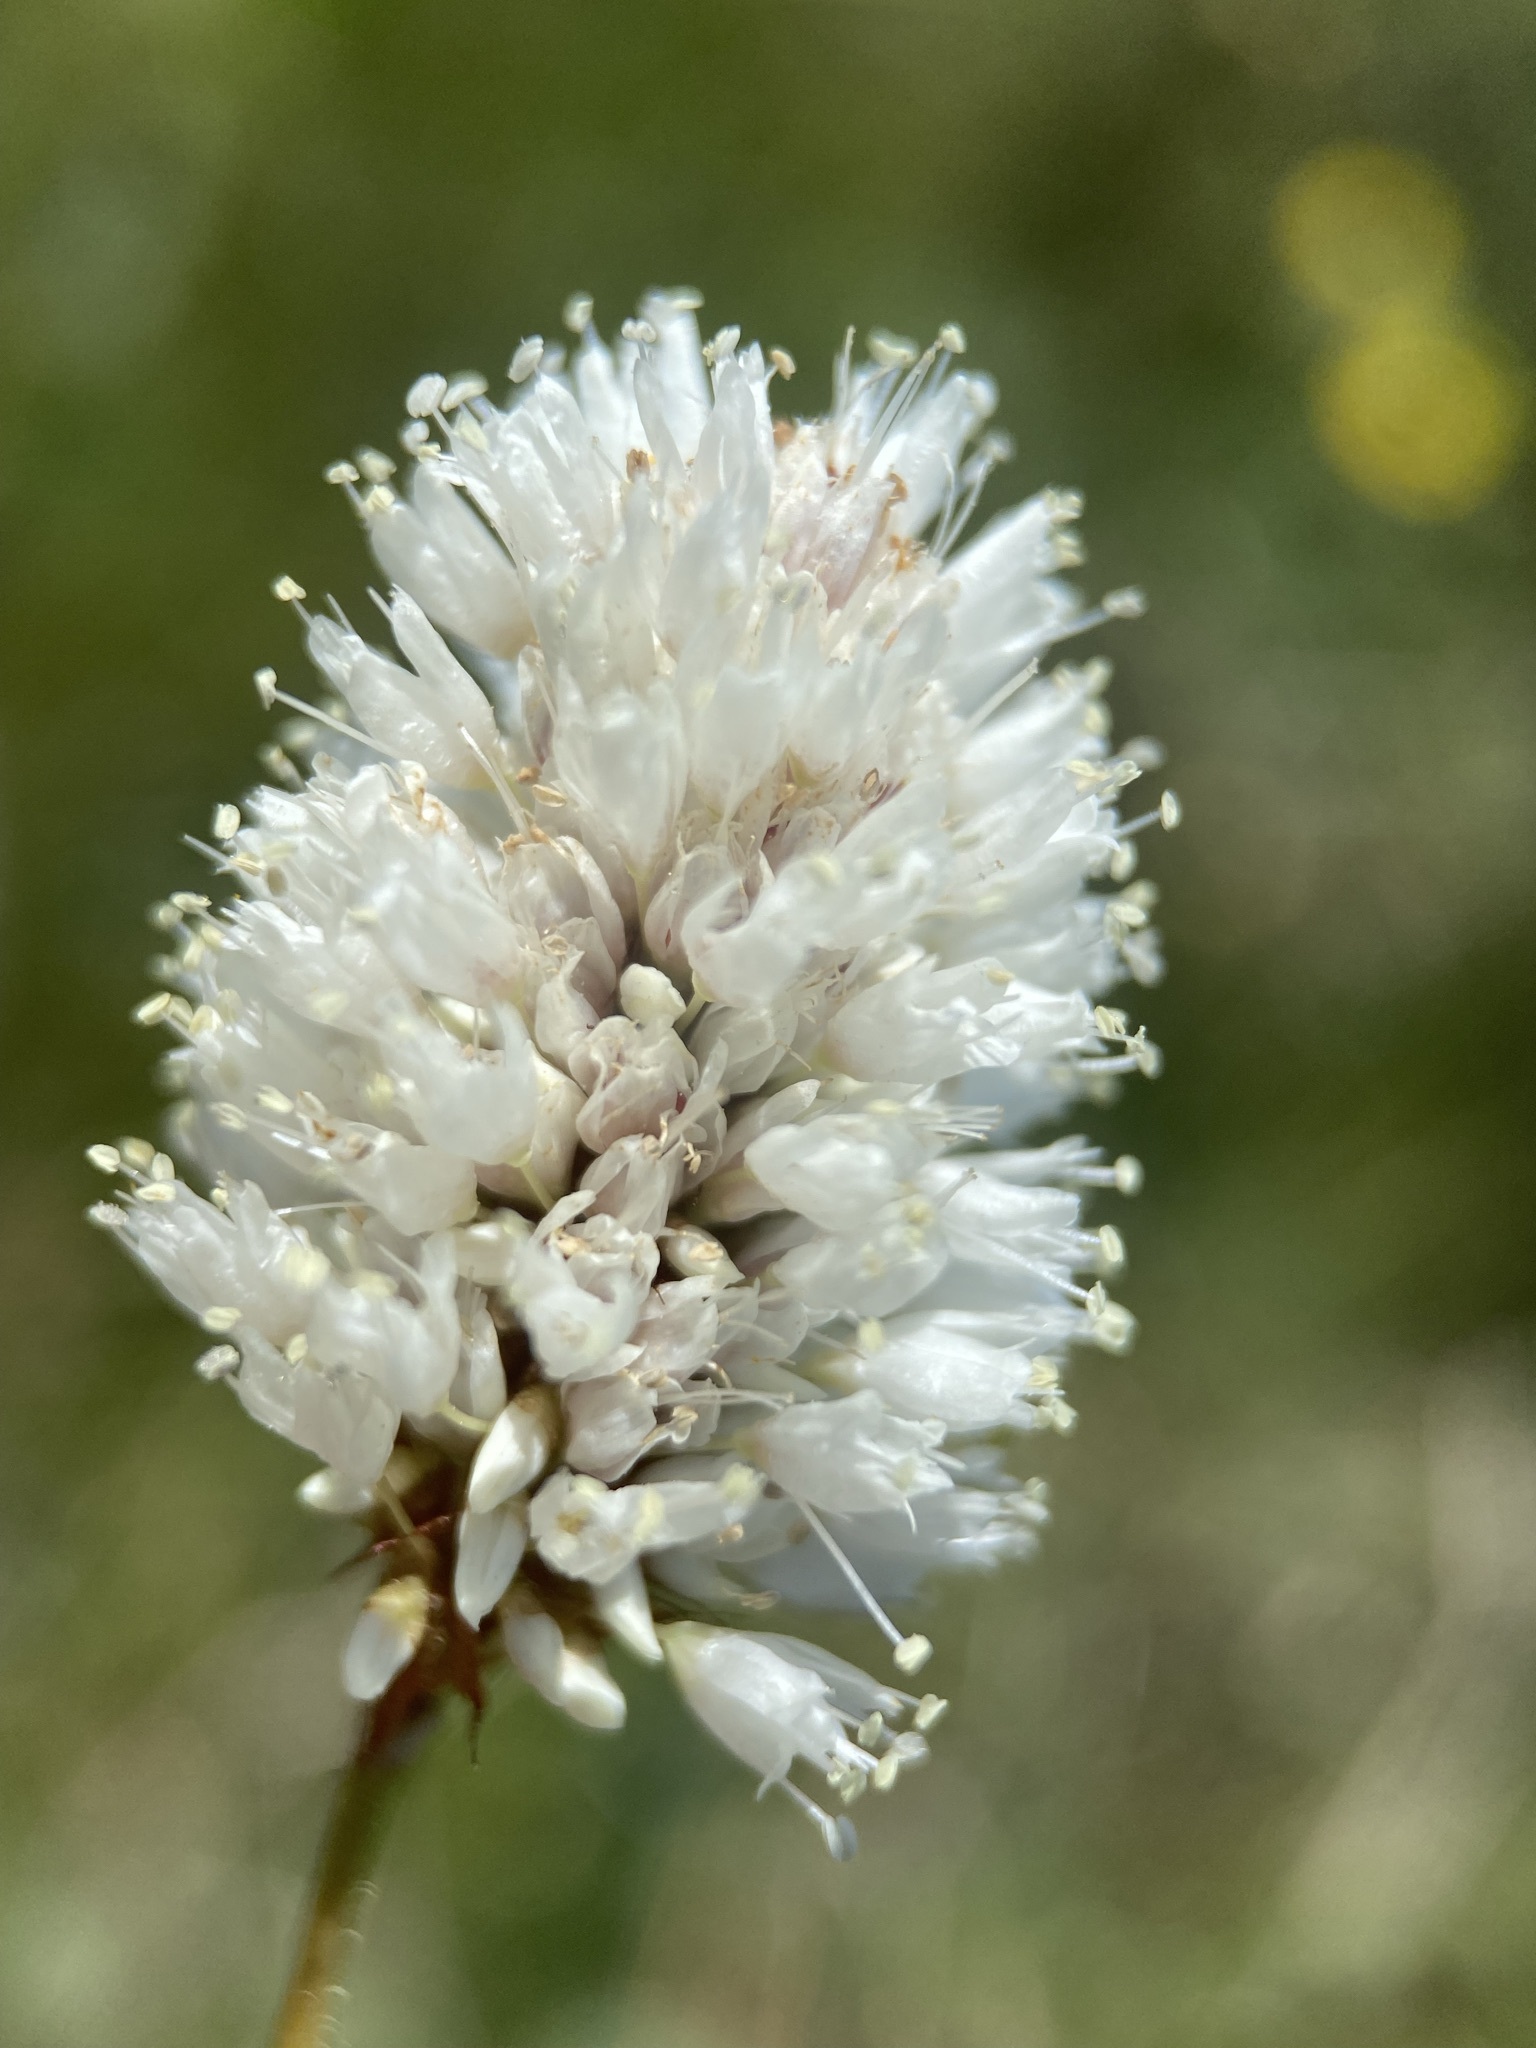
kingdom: Plantae
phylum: Tracheophyta
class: Magnoliopsida
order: Caryophyllales
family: Polygonaceae
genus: Bistorta
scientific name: Bistorta bistortoides
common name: American bistort
